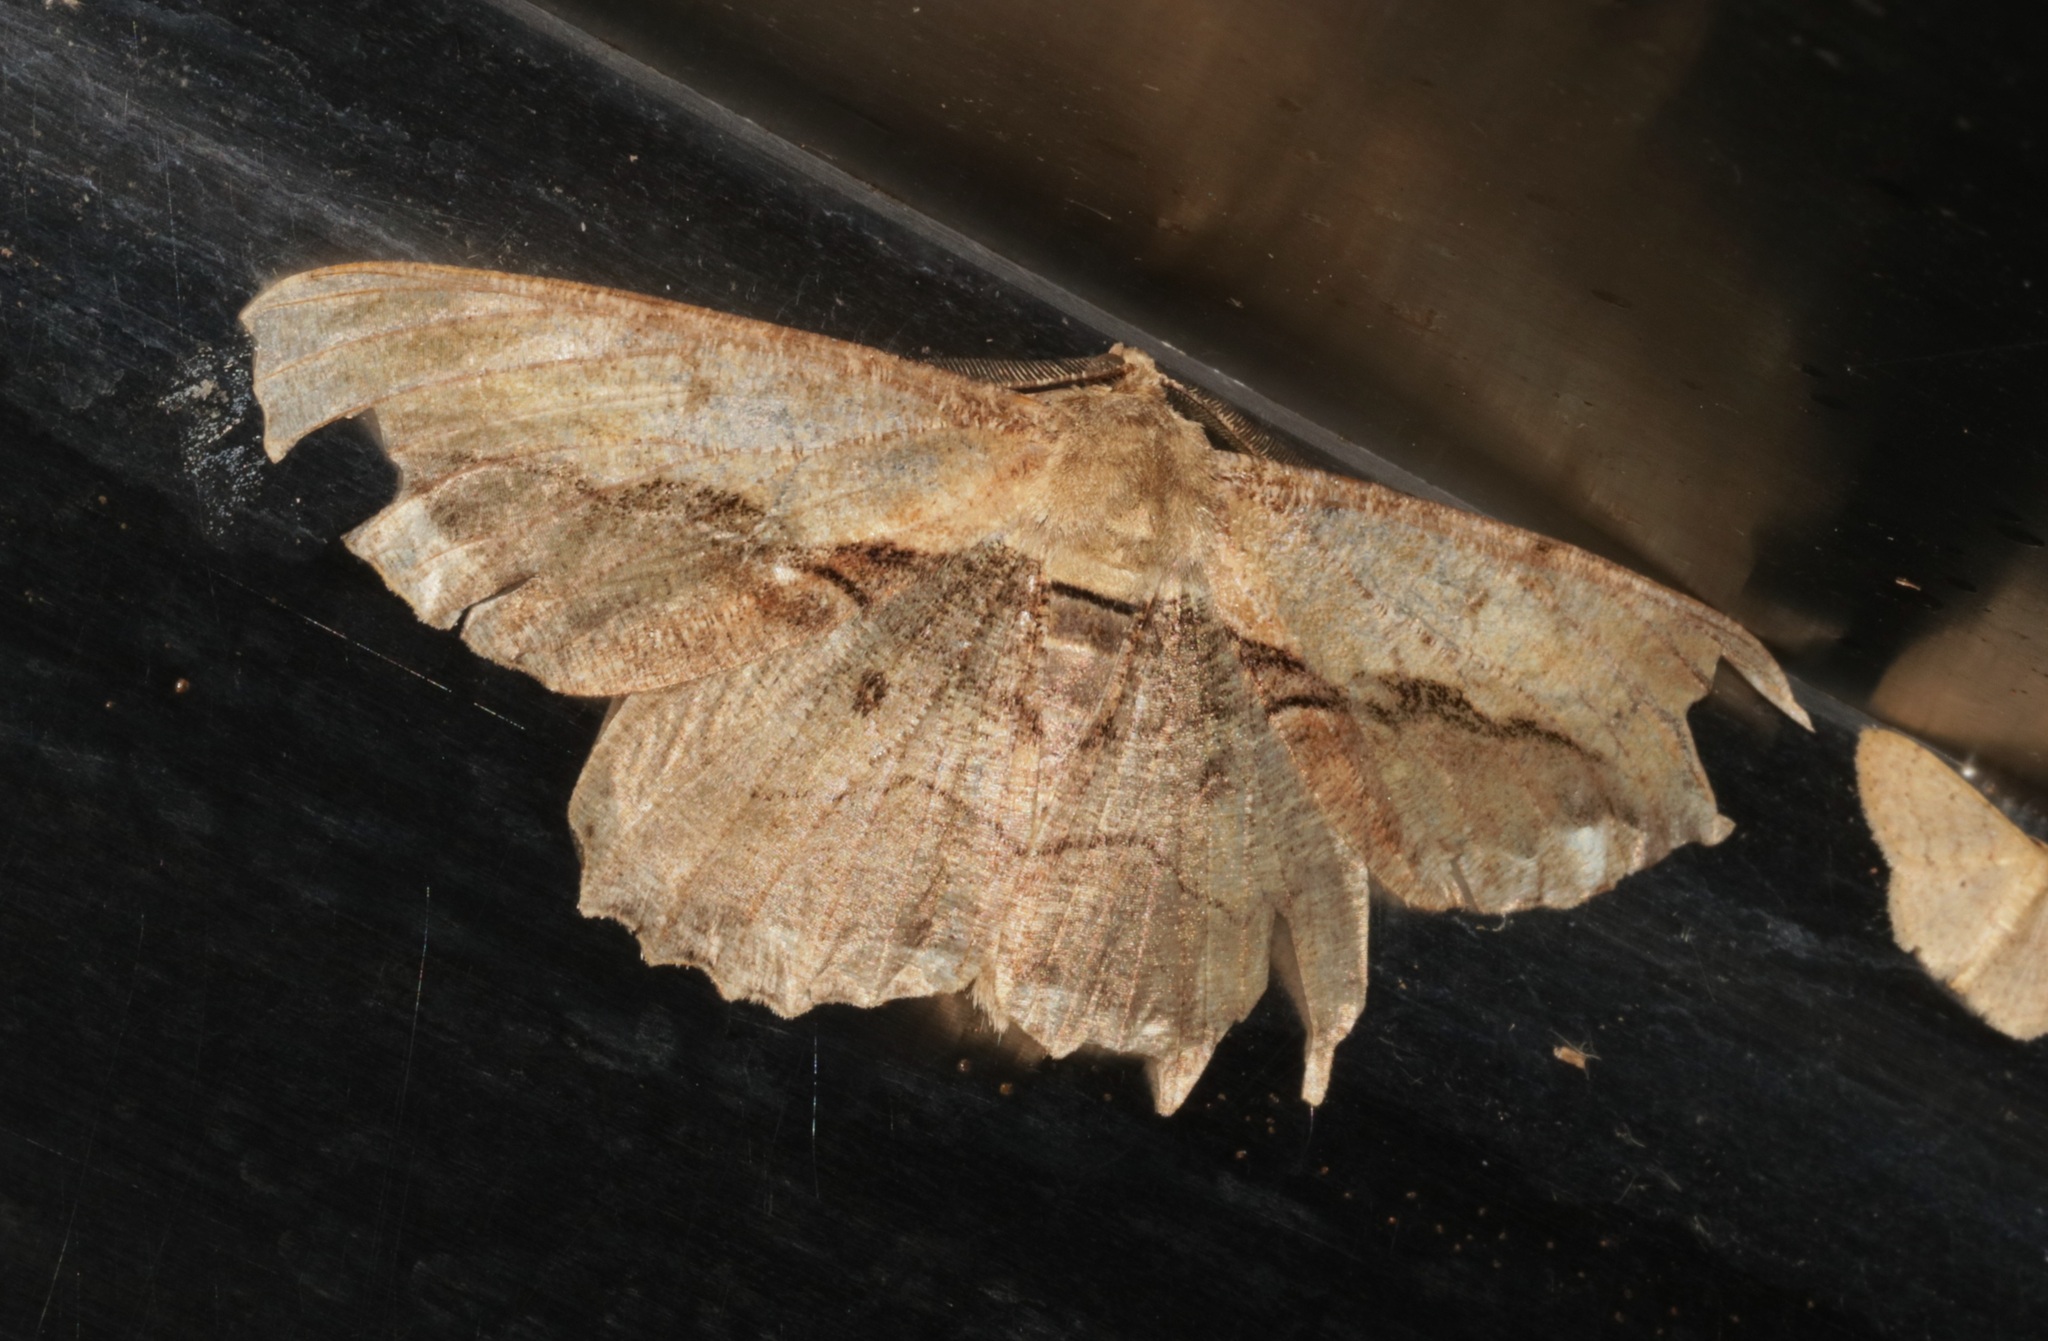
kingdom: Animalia
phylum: Arthropoda
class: Insecta
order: Lepidoptera
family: Geometridae
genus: Chorodna
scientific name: Chorodna strixaria
